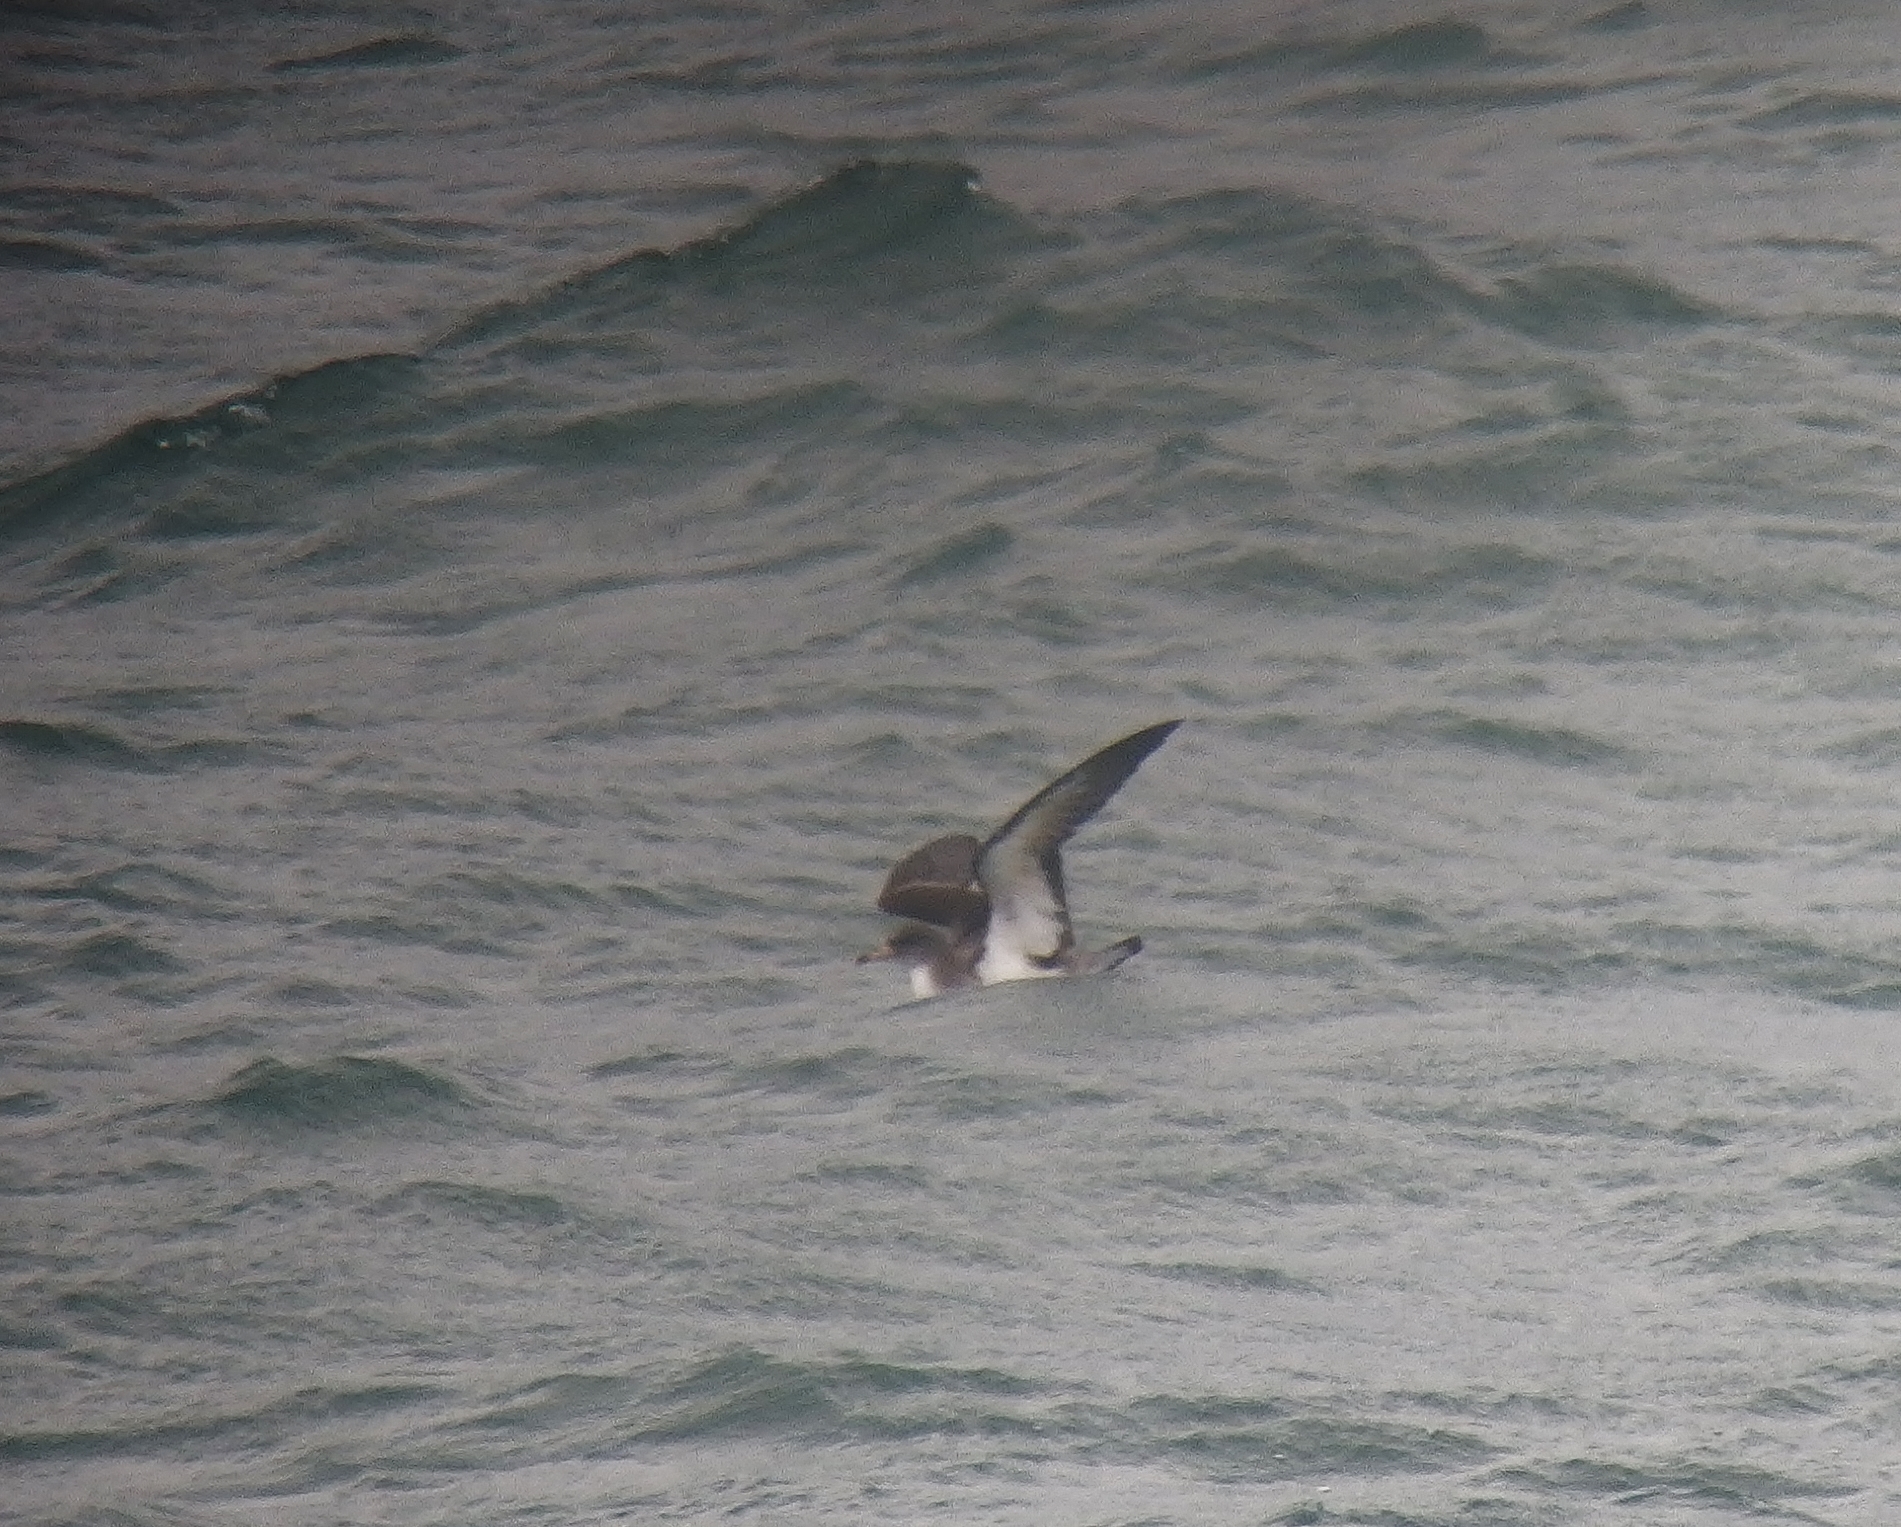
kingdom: Animalia
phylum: Chordata
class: Aves
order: Procellariiformes
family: Procellariidae
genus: Calonectris
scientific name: Calonectris diomedea
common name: Cory's shearwater
